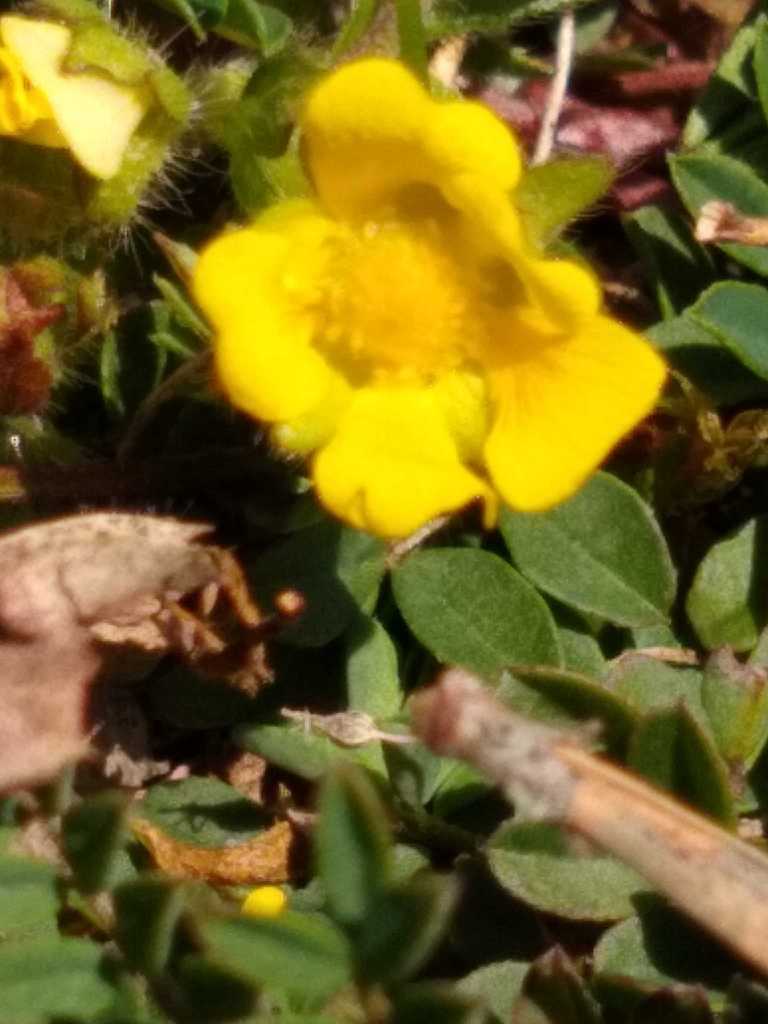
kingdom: Plantae
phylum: Tracheophyta
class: Magnoliopsida
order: Rosales
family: Rosaceae
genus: Potentilla
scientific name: Potentilla verna
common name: Spring cinquefoil
